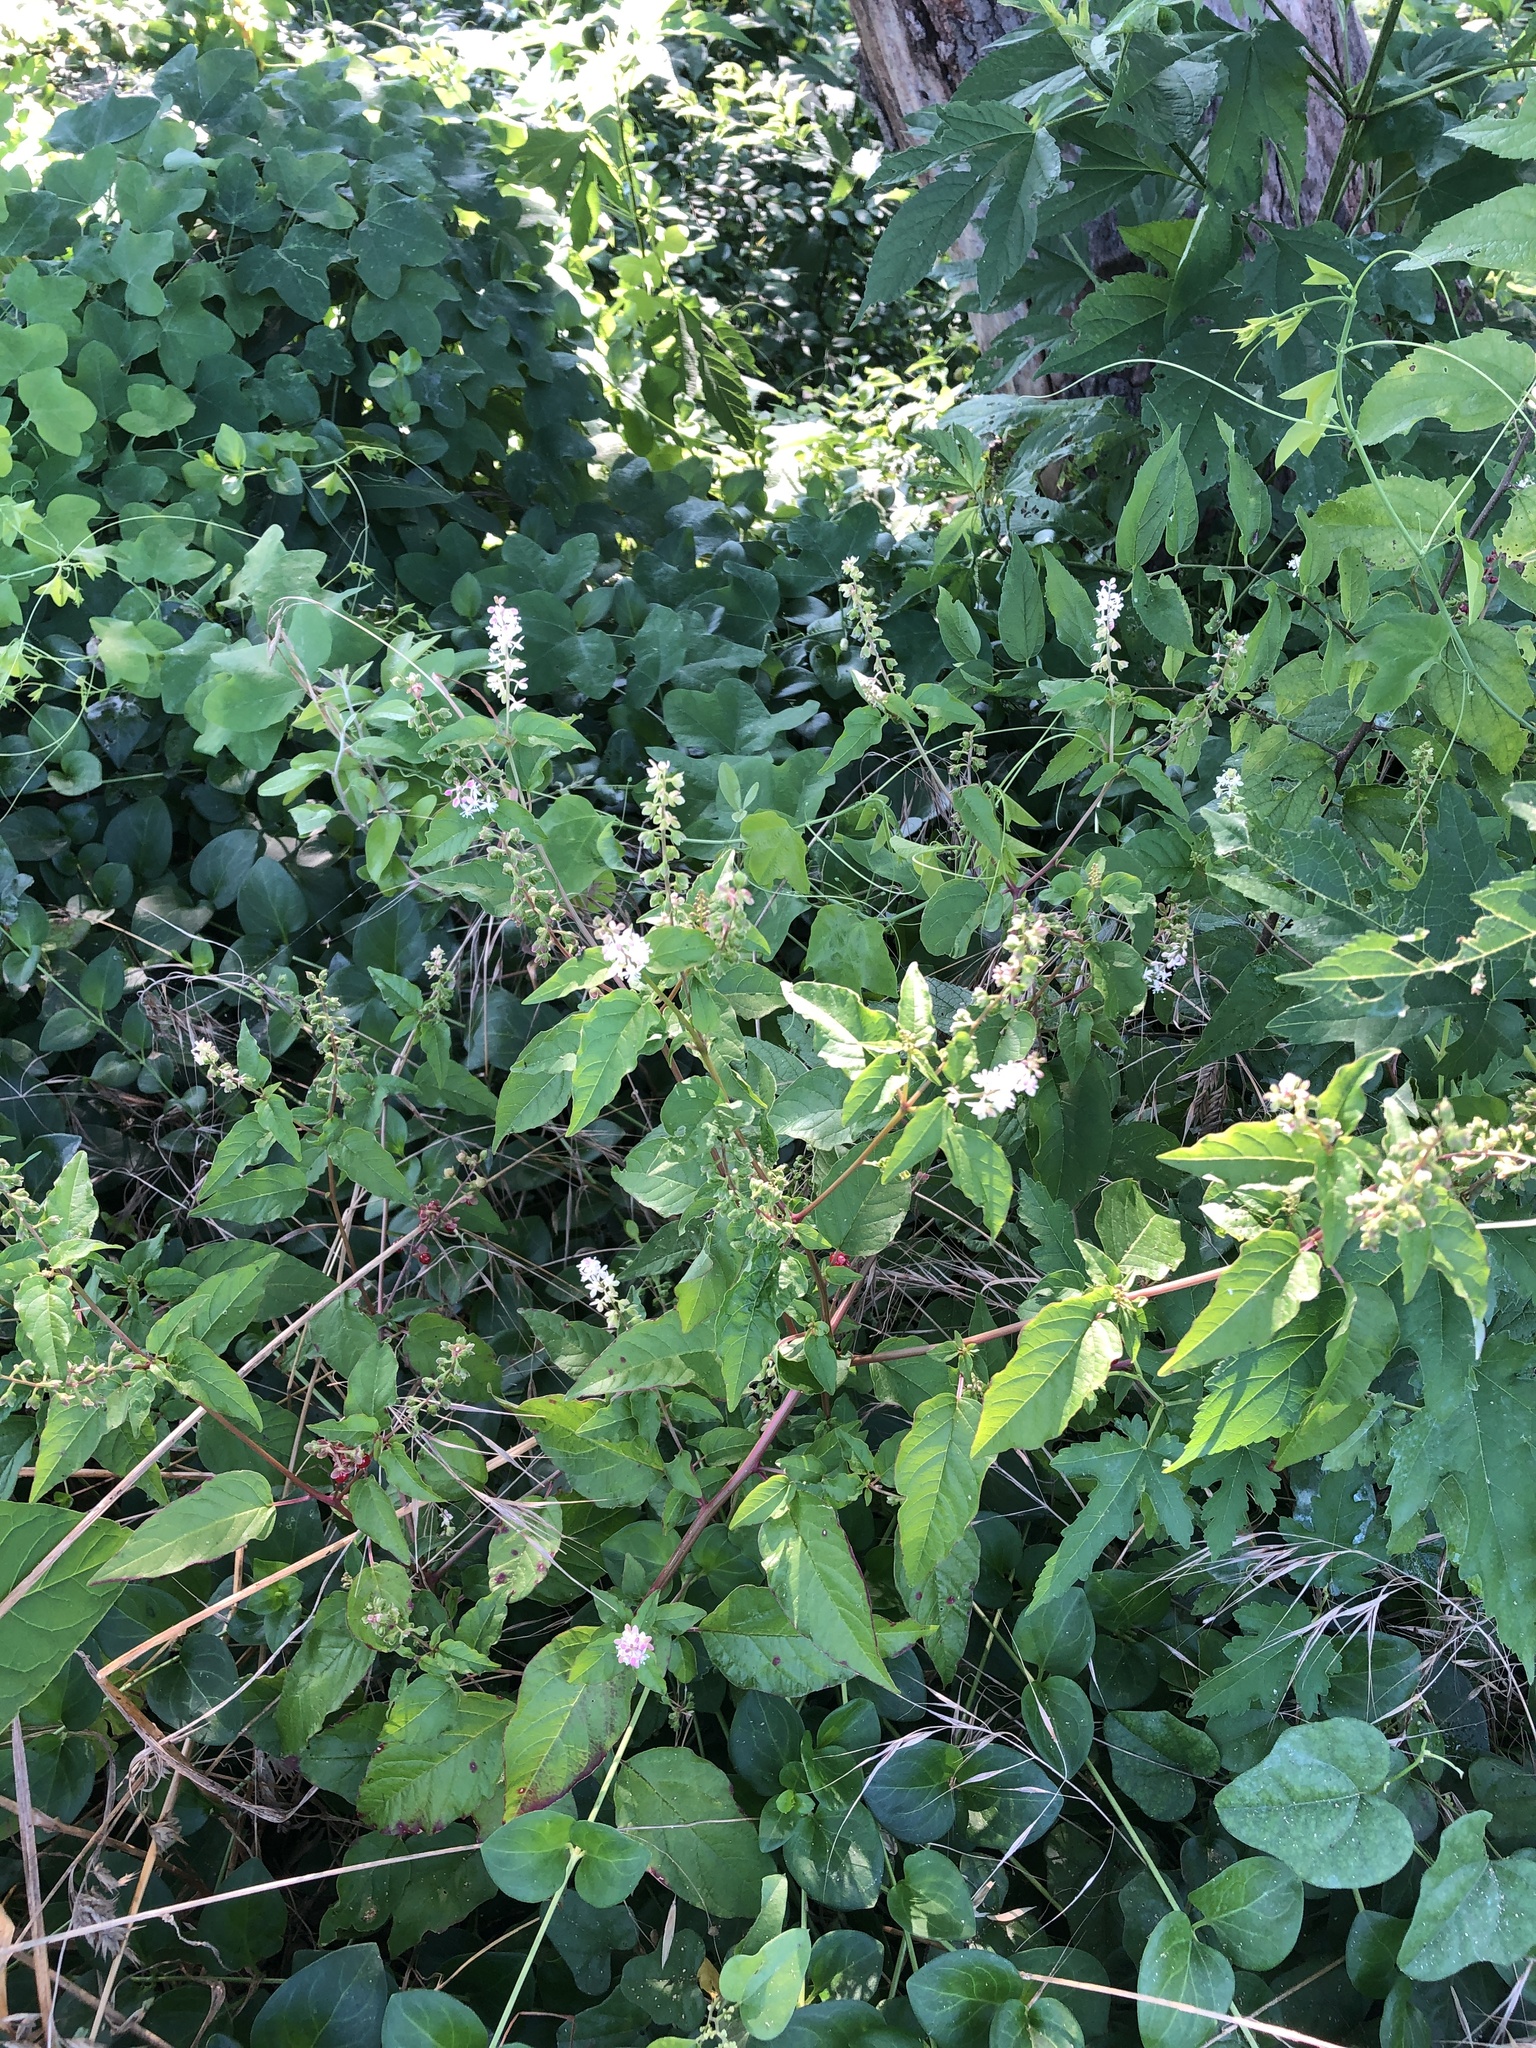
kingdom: Plantae
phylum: Tracheophyta
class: Magnoliopsida
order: Caryophyllales
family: Phytolaccaceae
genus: Rivina
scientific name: Rivina humilis
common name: Rougeplant
